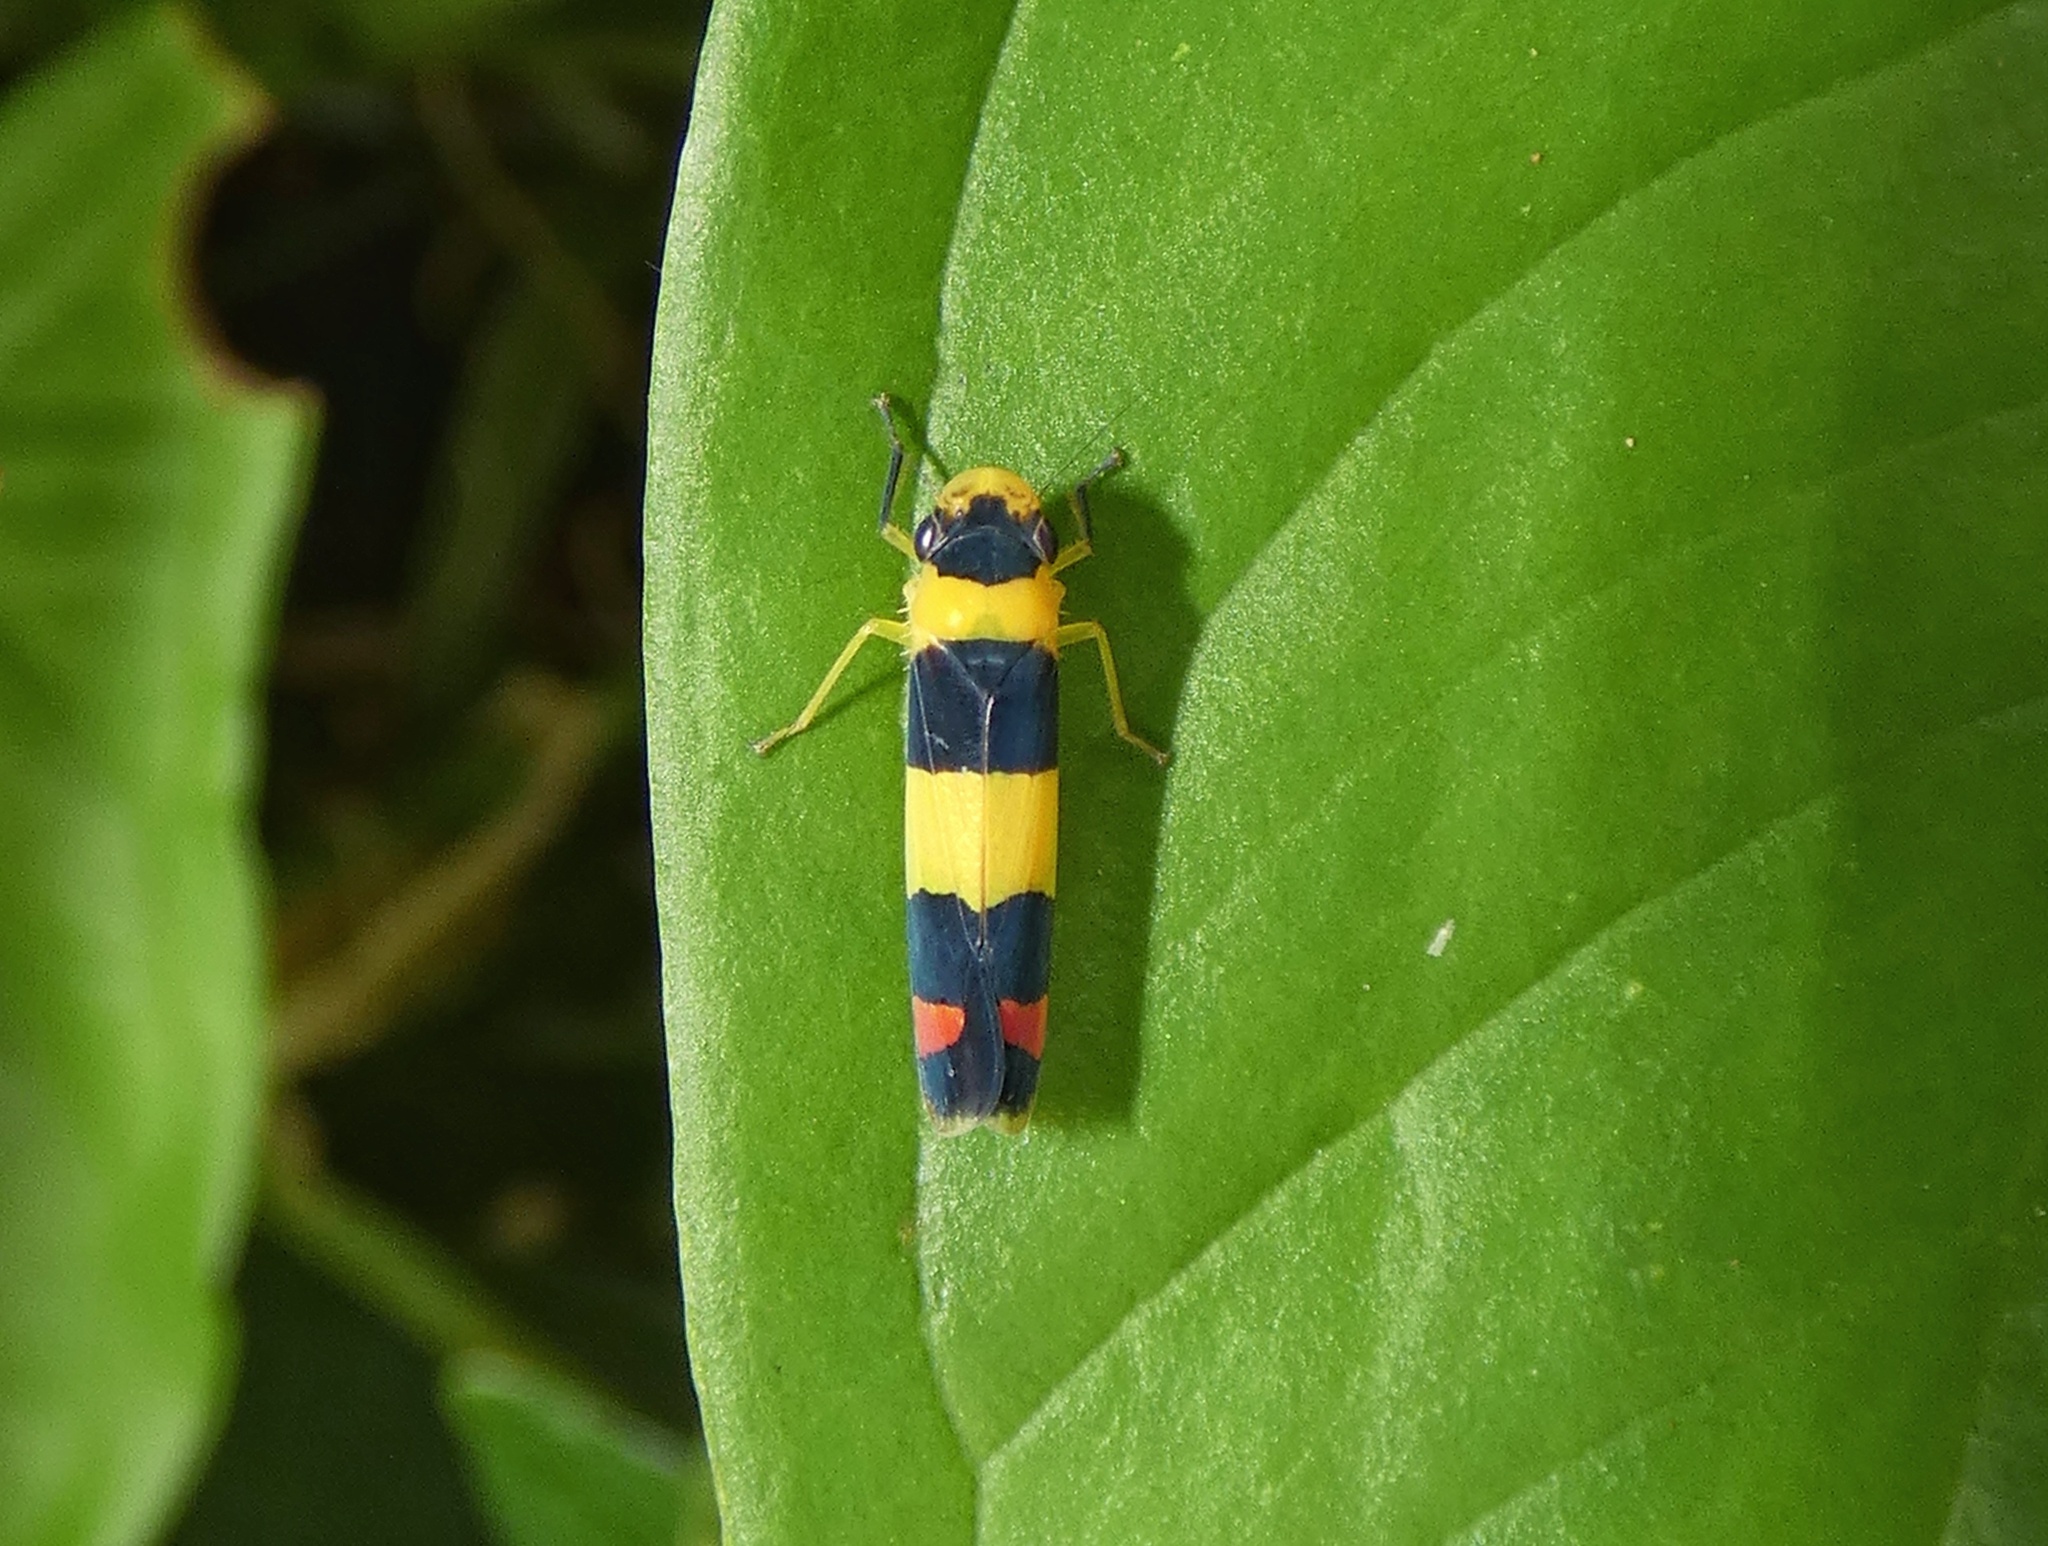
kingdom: Animalia
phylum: Arthropoda
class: Insecta
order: Hemiptera
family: Cicadellidae
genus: Janastana
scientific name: Janastana distinguenda
